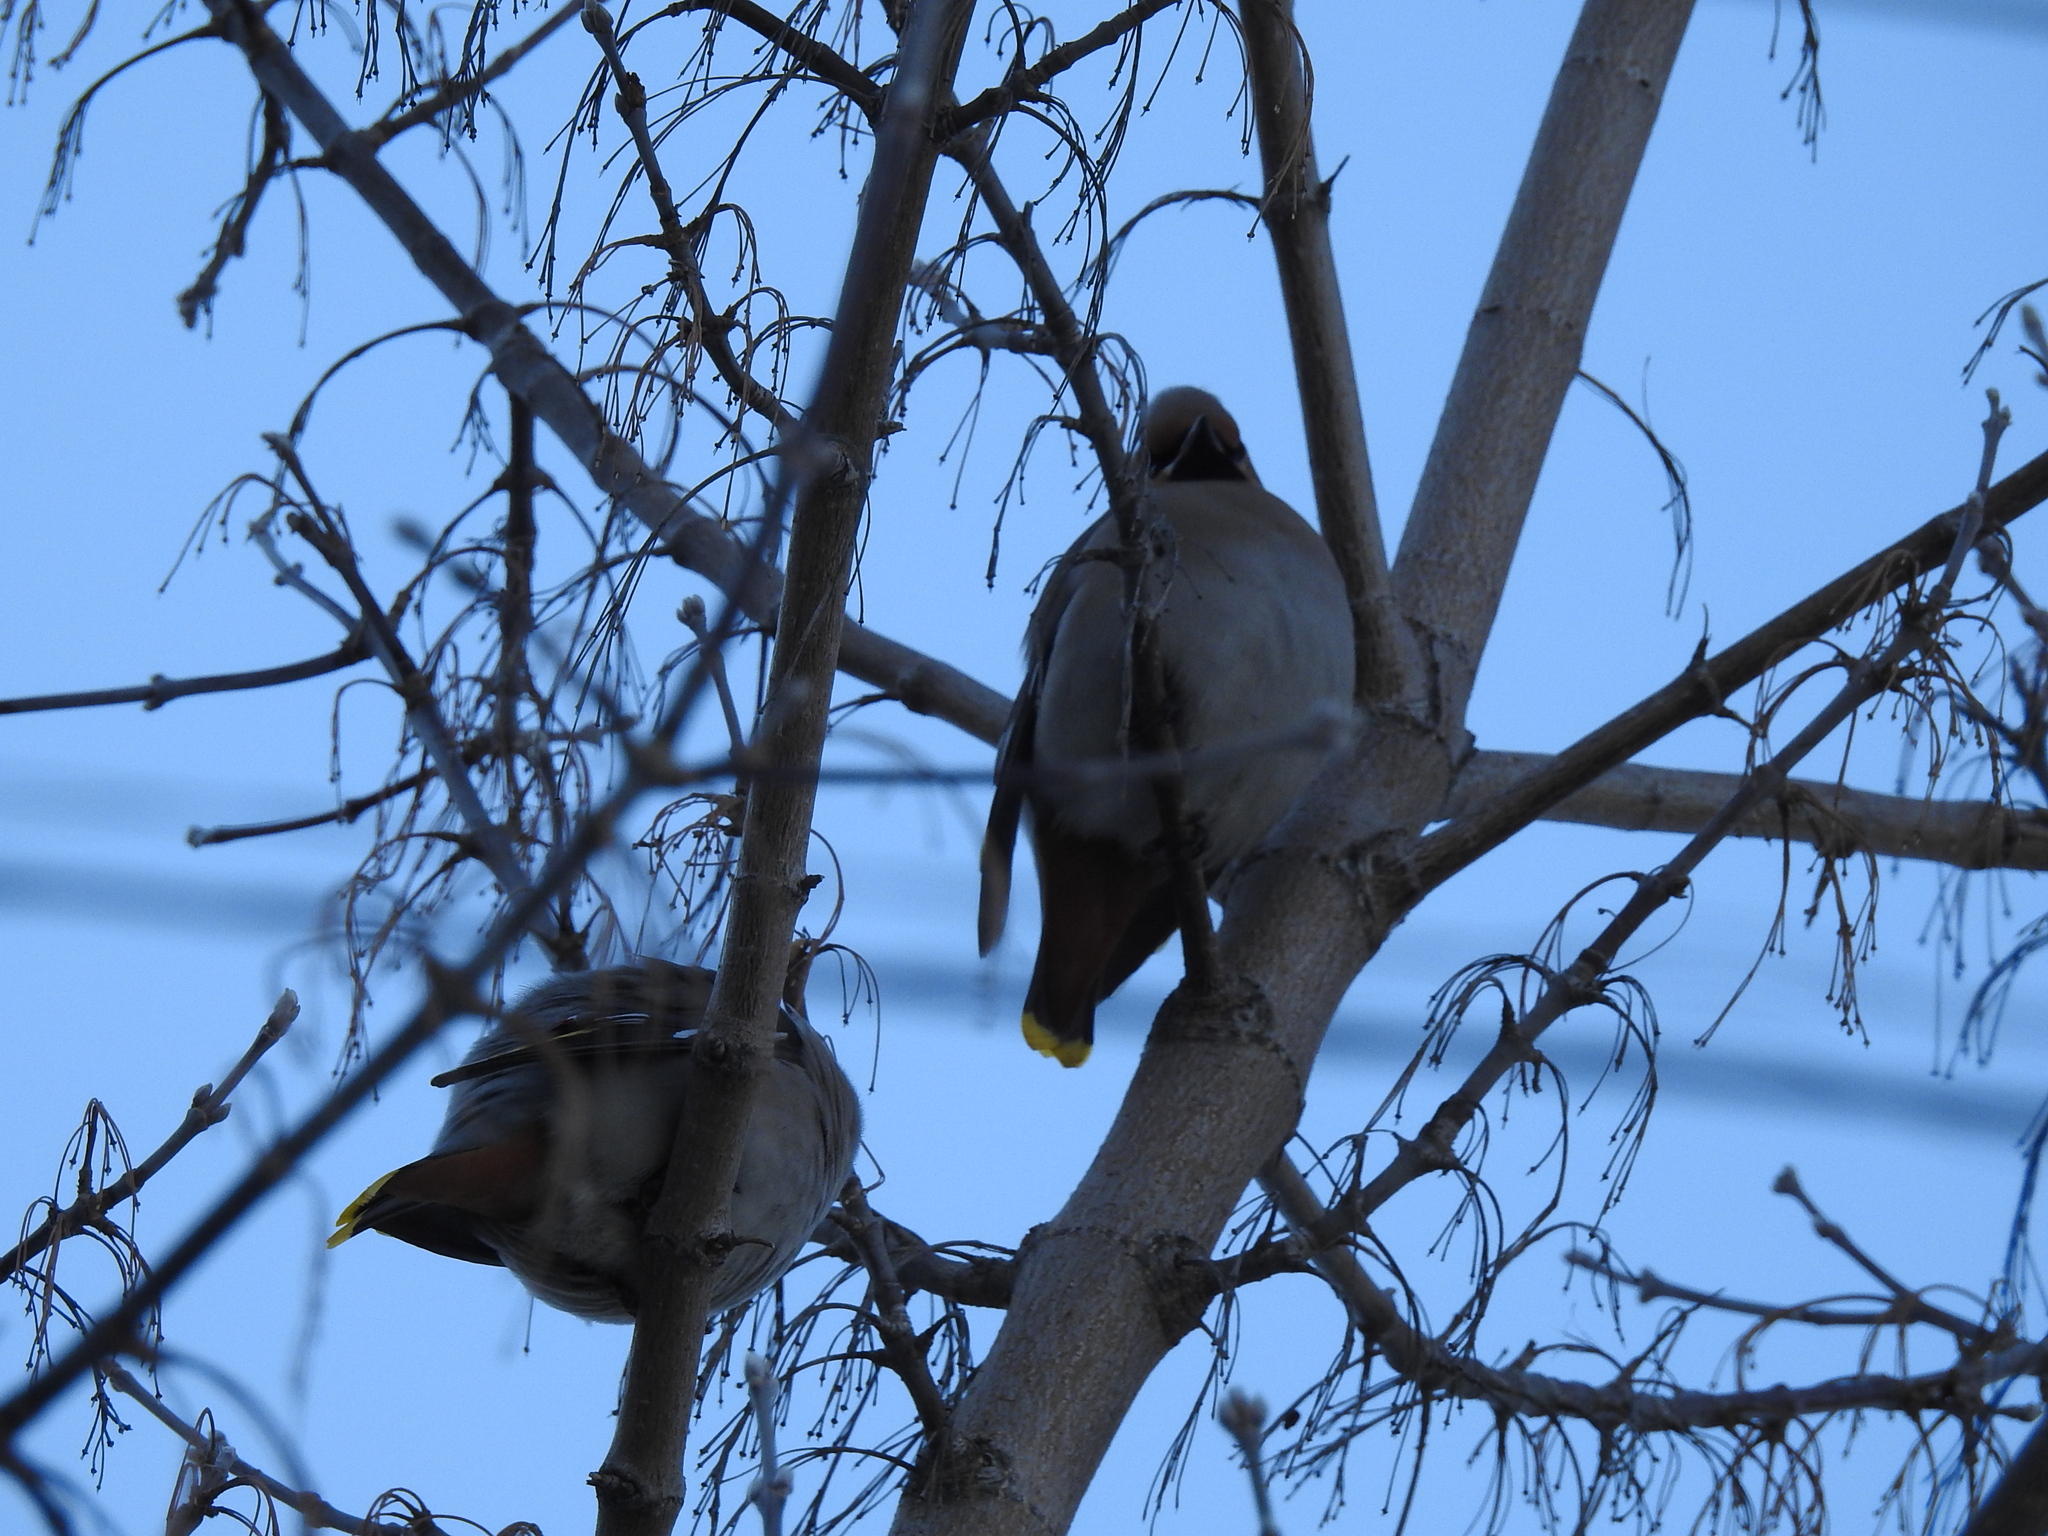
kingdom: Animalia
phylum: Chordata
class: Aves
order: Passeriformes
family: Bombycillidae
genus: Bombycilla
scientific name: Bombycilla garrulus
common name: Bohemian waxwing
